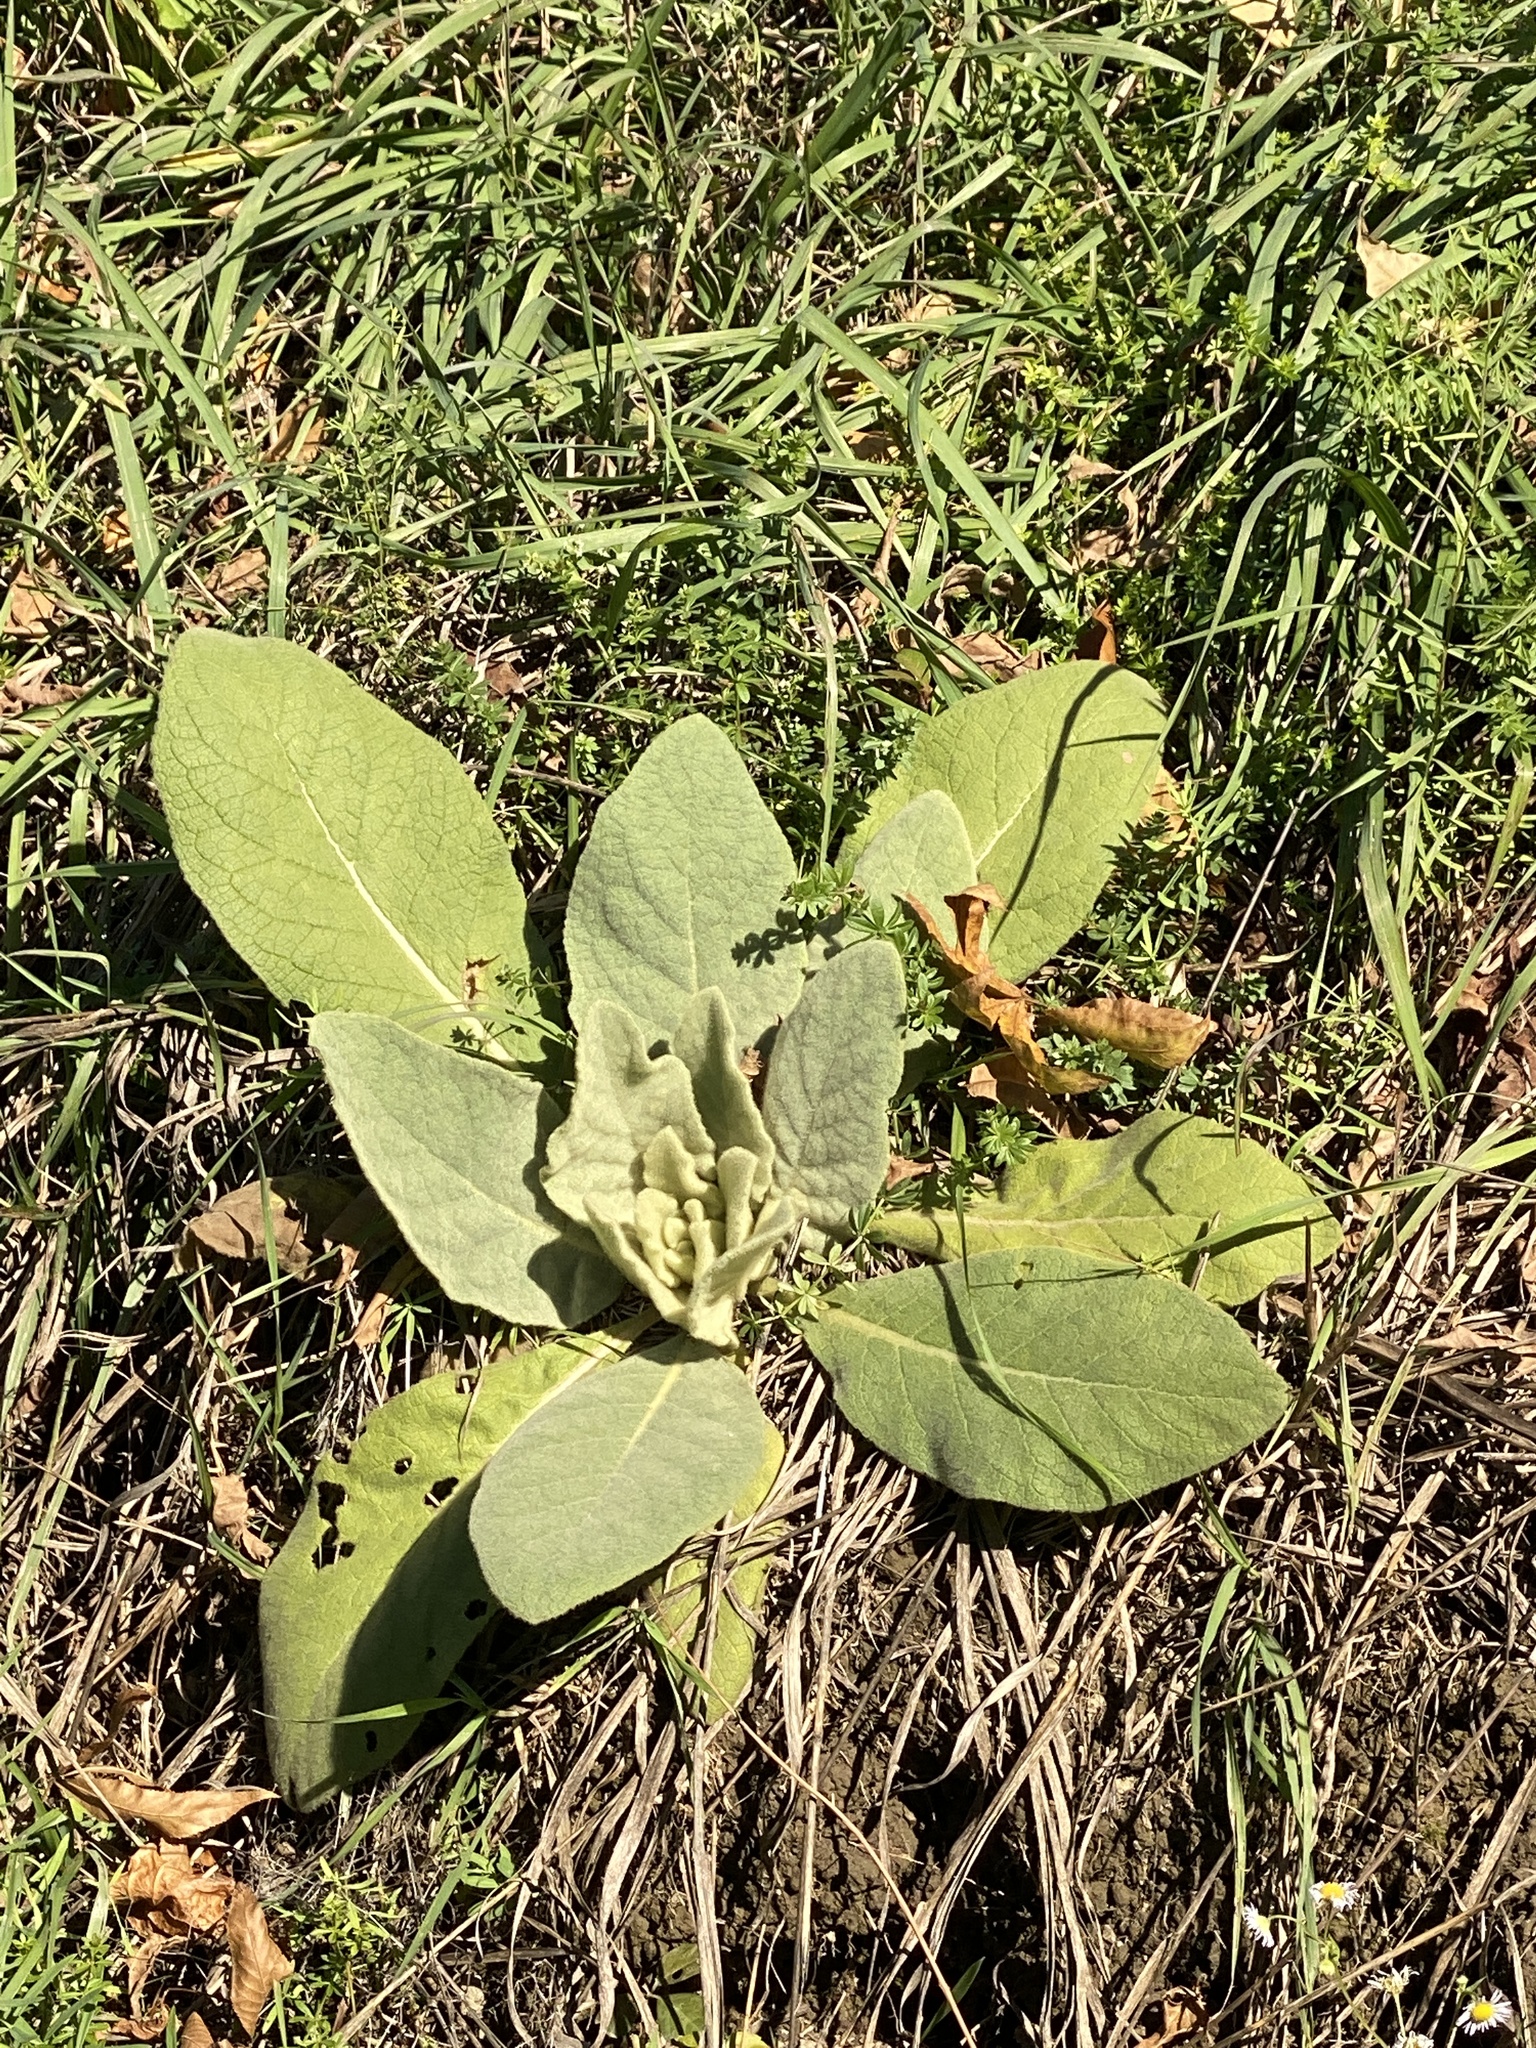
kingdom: Plantae
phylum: Tracheophyta
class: Magnoliopsida
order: Lamiales
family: Scrophulariaceae
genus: Verbascum
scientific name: Verbascum thapsus
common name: Common mullein
